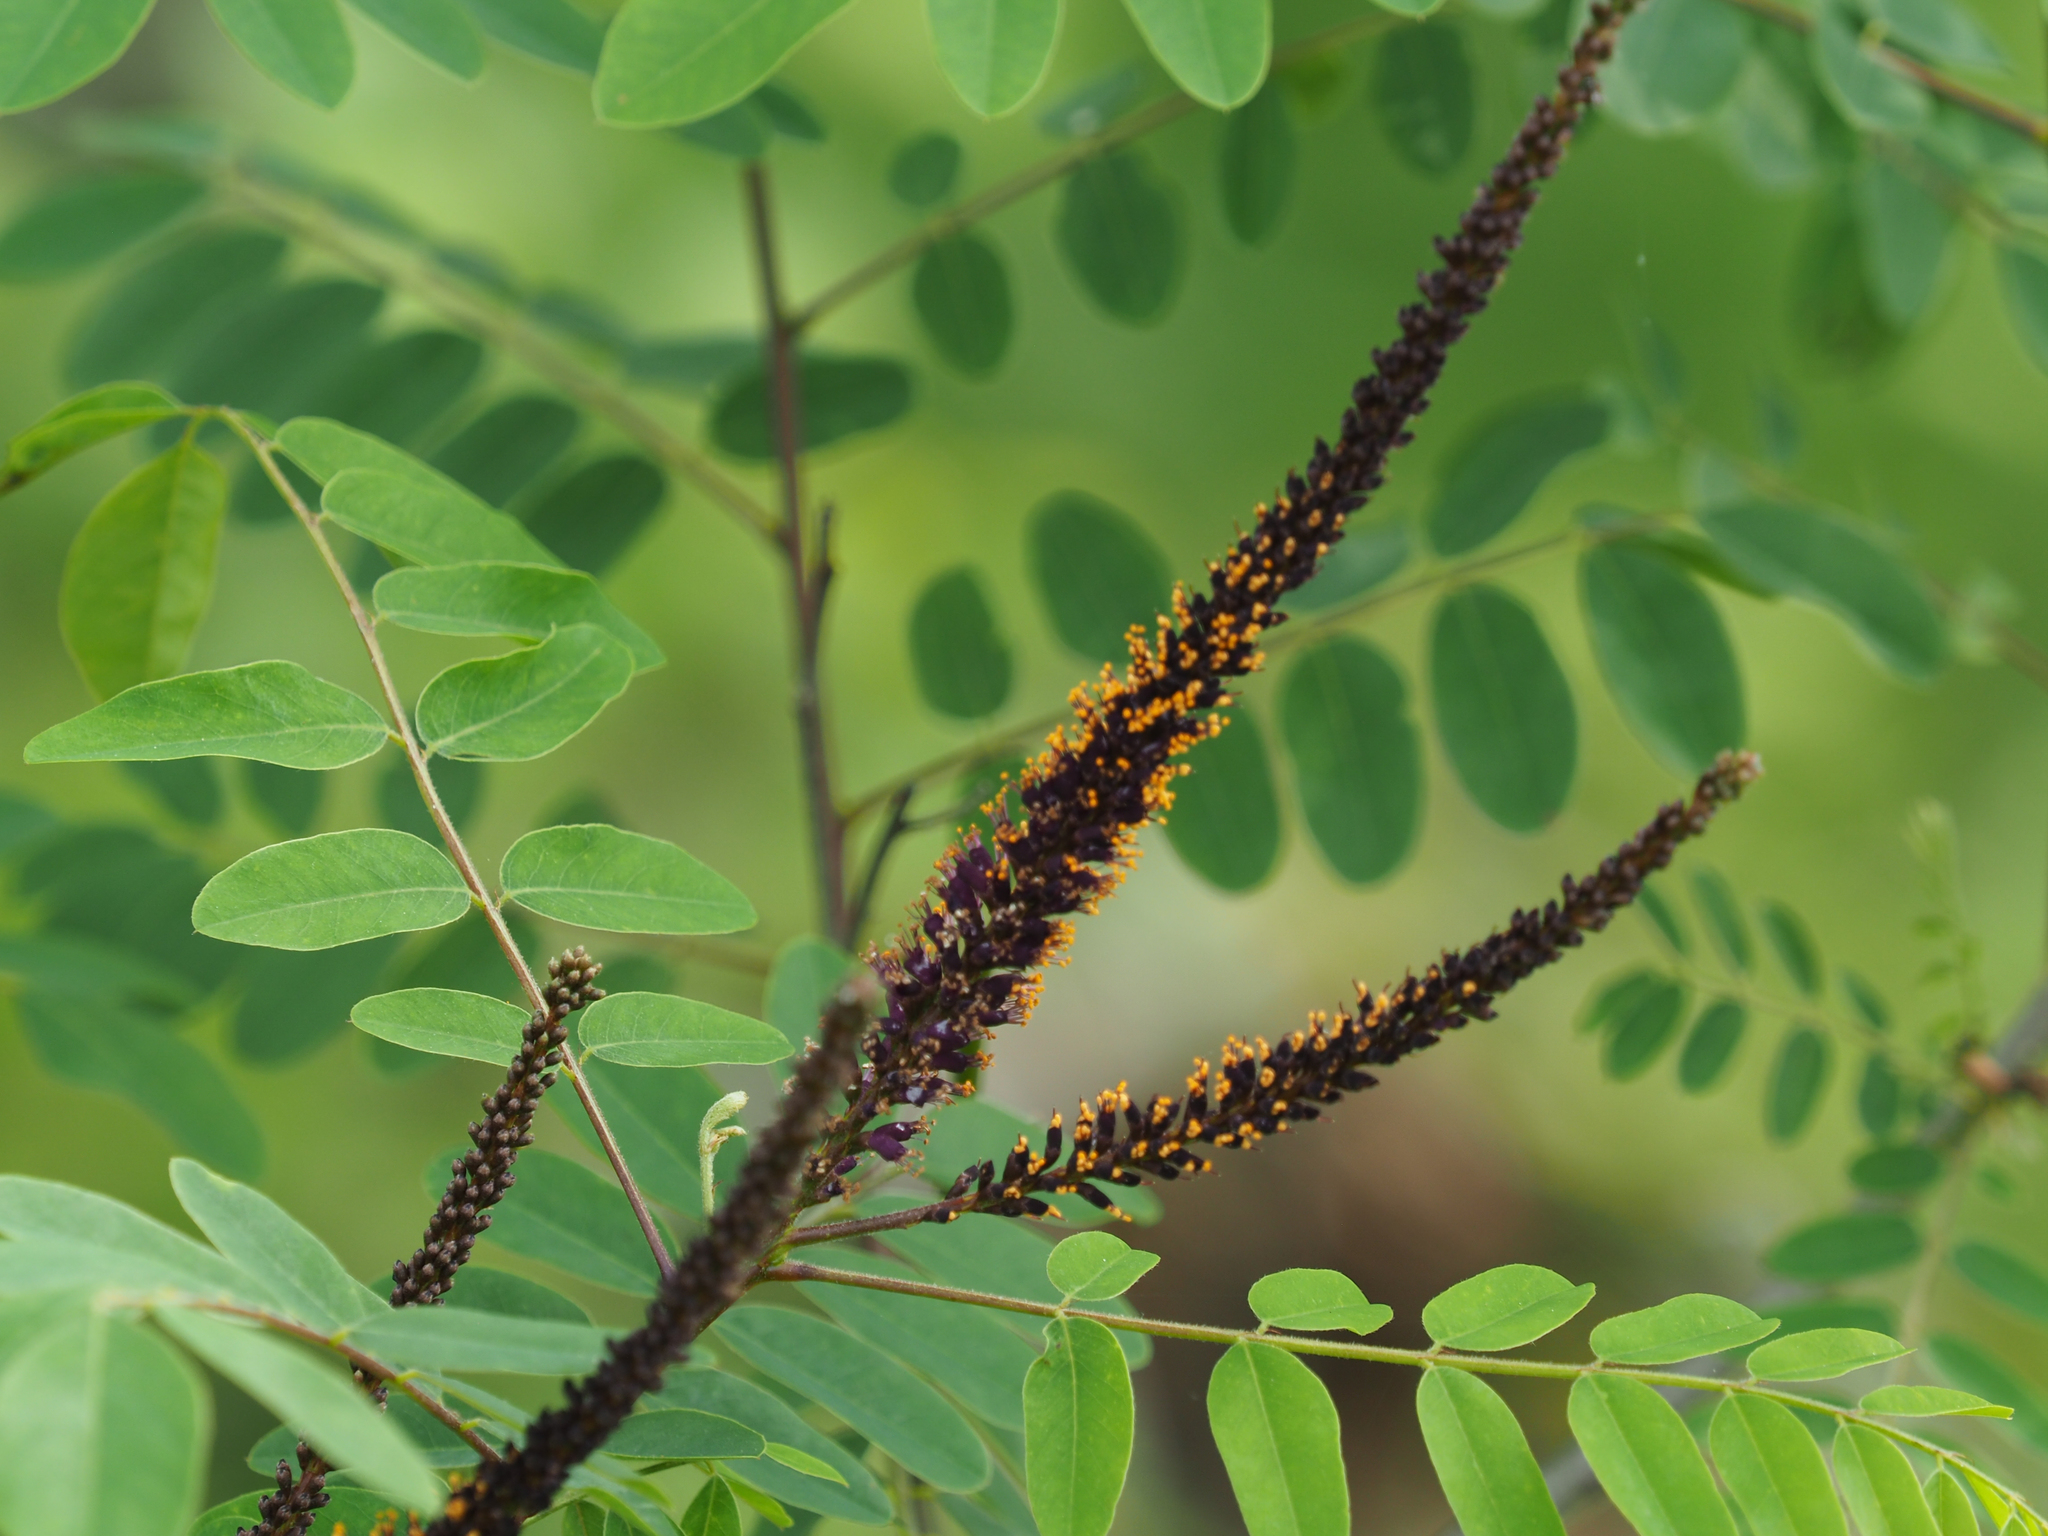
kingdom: Plantae
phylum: Tracheophyta
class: Magnoliopsida
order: Fabales
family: Fabaceae
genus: Amorpha
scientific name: Amorpha fruticosa
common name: False indigo
